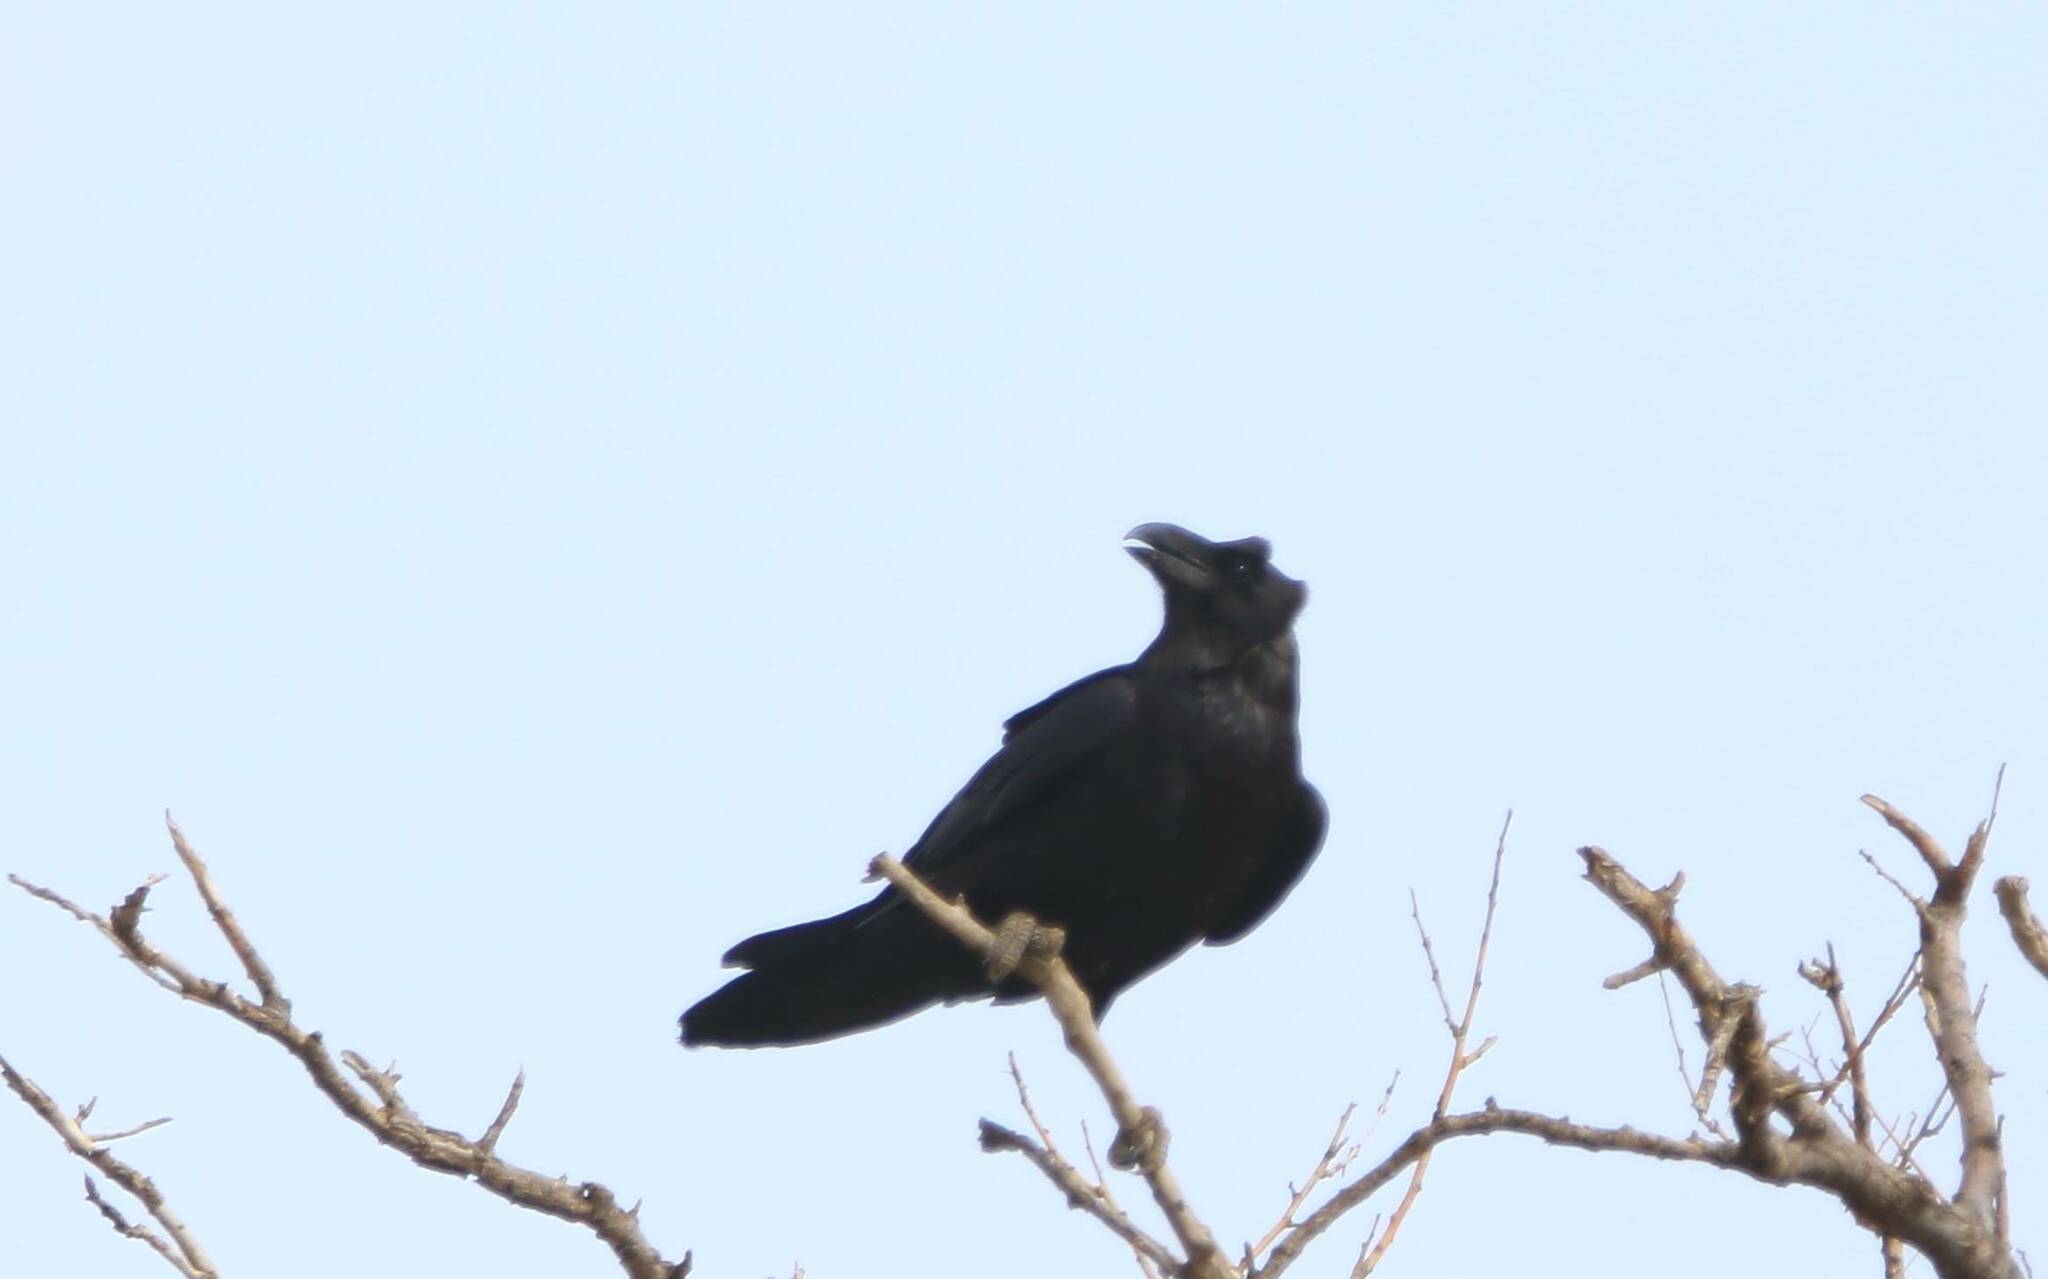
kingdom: Animalia
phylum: Chordata
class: Aves
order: Passeriformes
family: Corvidae
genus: Corvus
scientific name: Corvus corax
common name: Common raven
